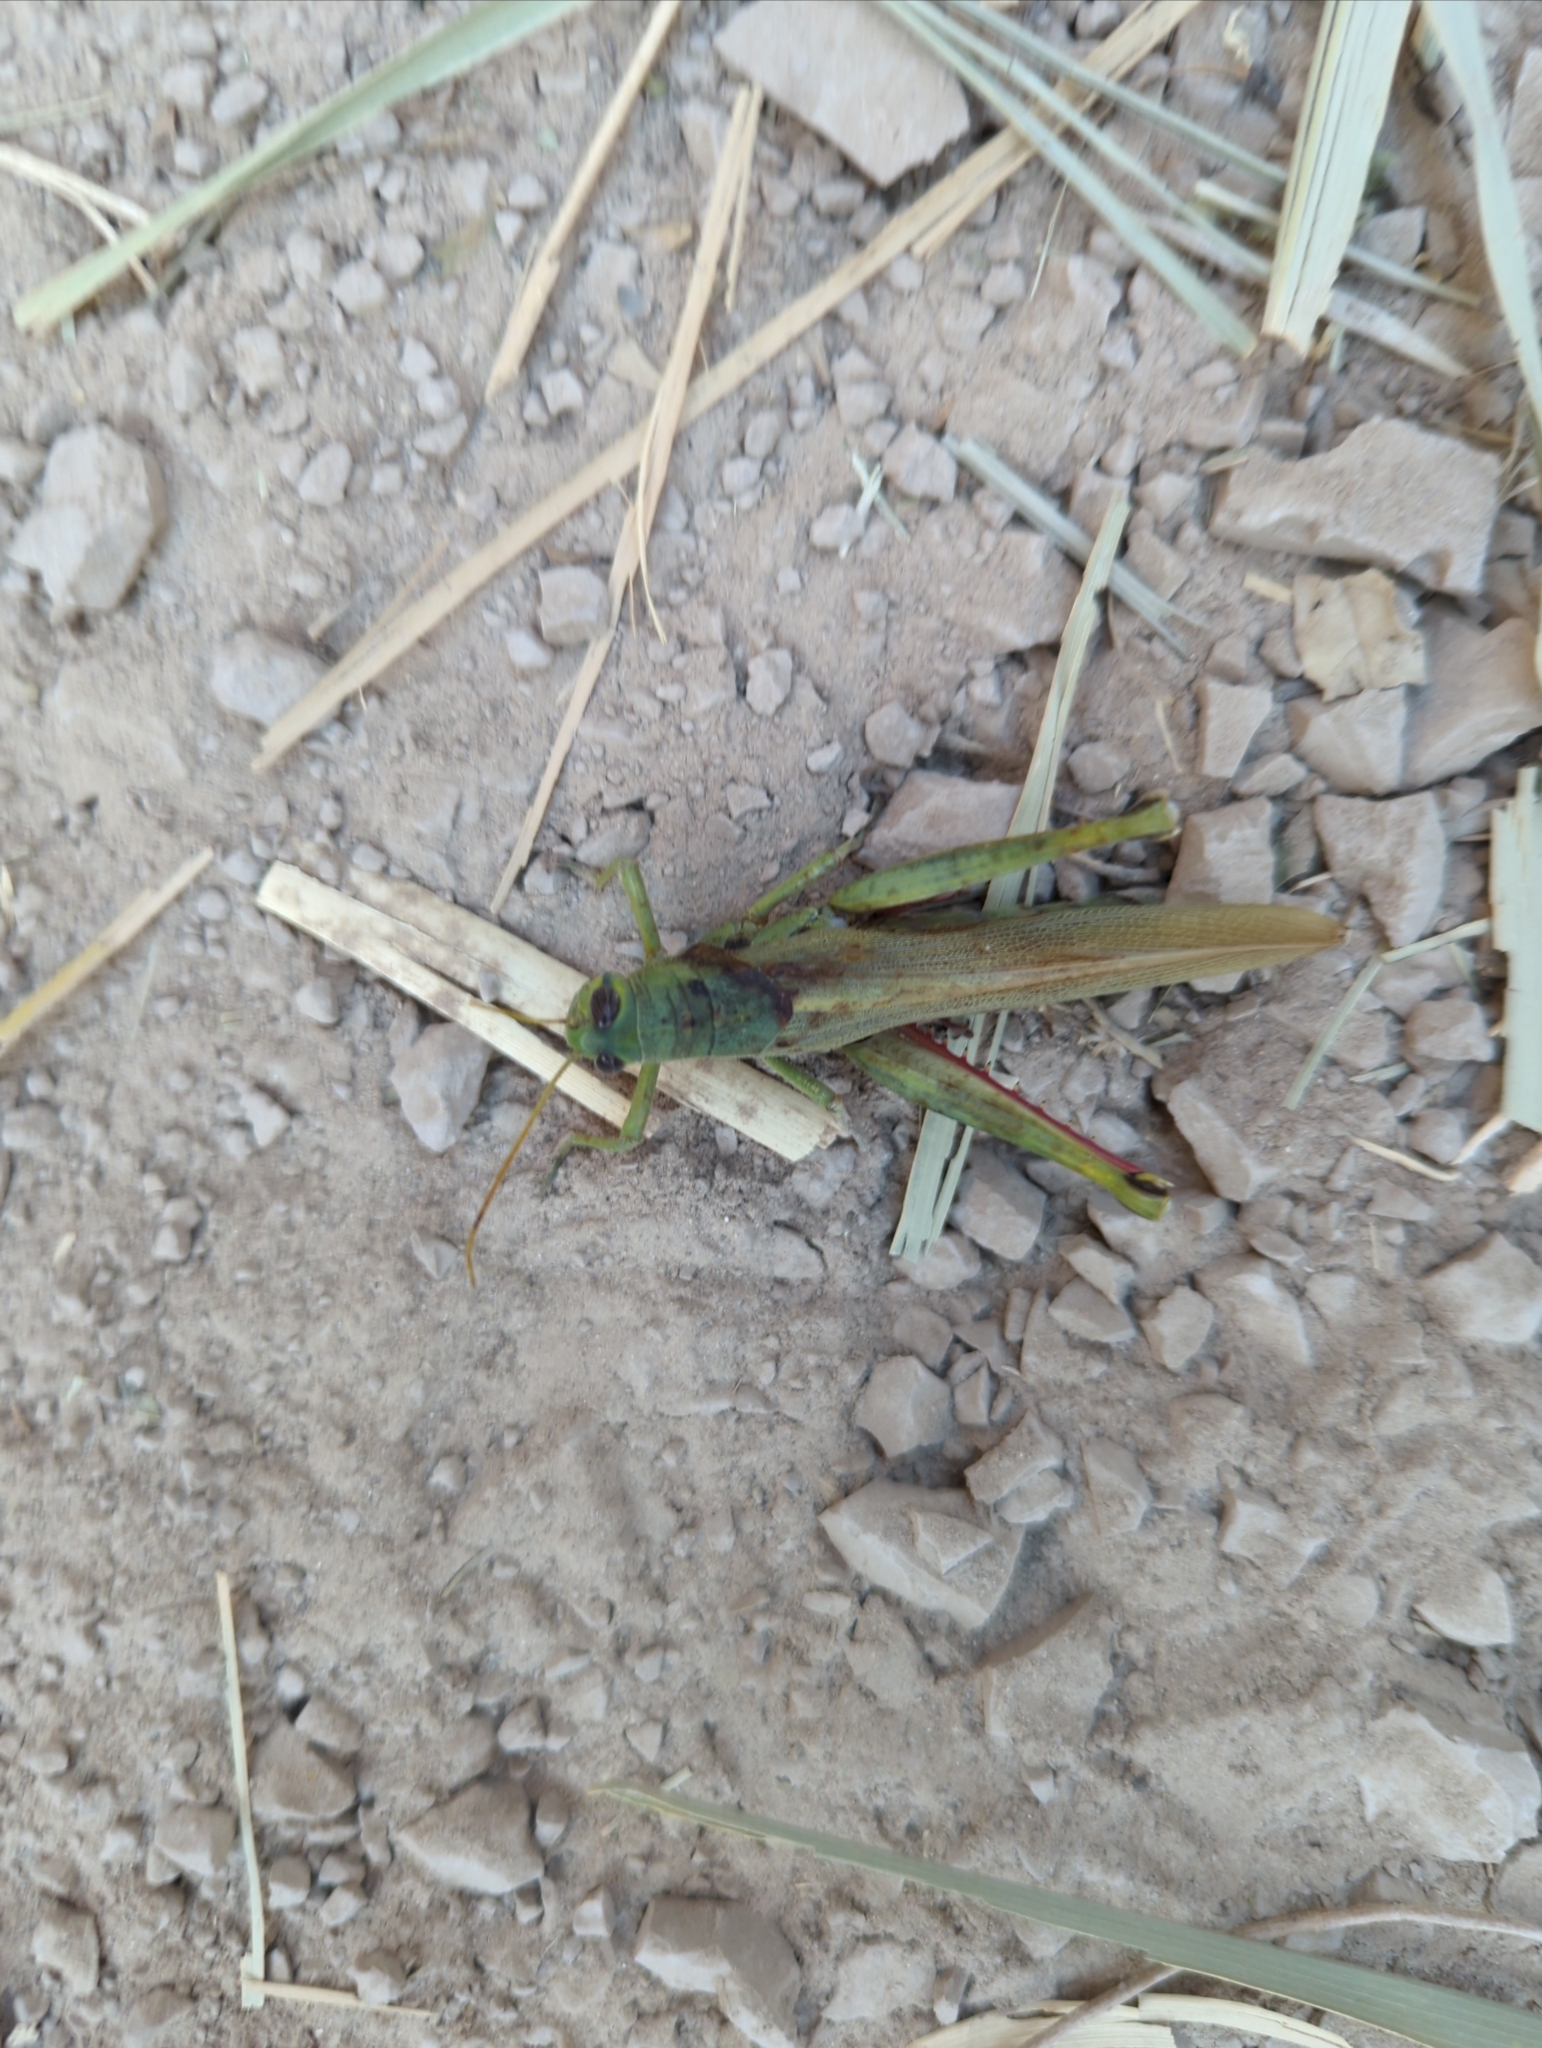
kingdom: Animalia
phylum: Arthropoda
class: Insecta
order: Orthoptera
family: Acrididae
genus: Schistocerca
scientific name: Schistocerca shoshone
